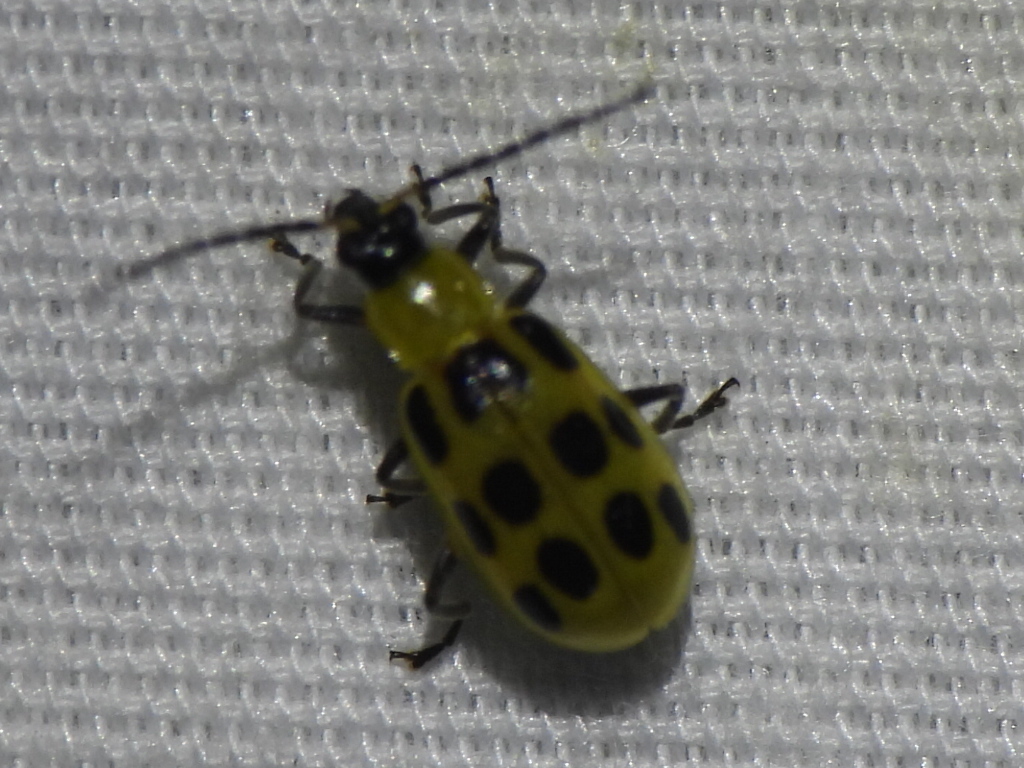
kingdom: Animalia
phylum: Arthropoda
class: Insecta
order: Coleoptera
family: Chrysomelidae
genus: Diabrotica
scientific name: Diabrotica undecimpunctata
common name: Spotted cucumber beetle
